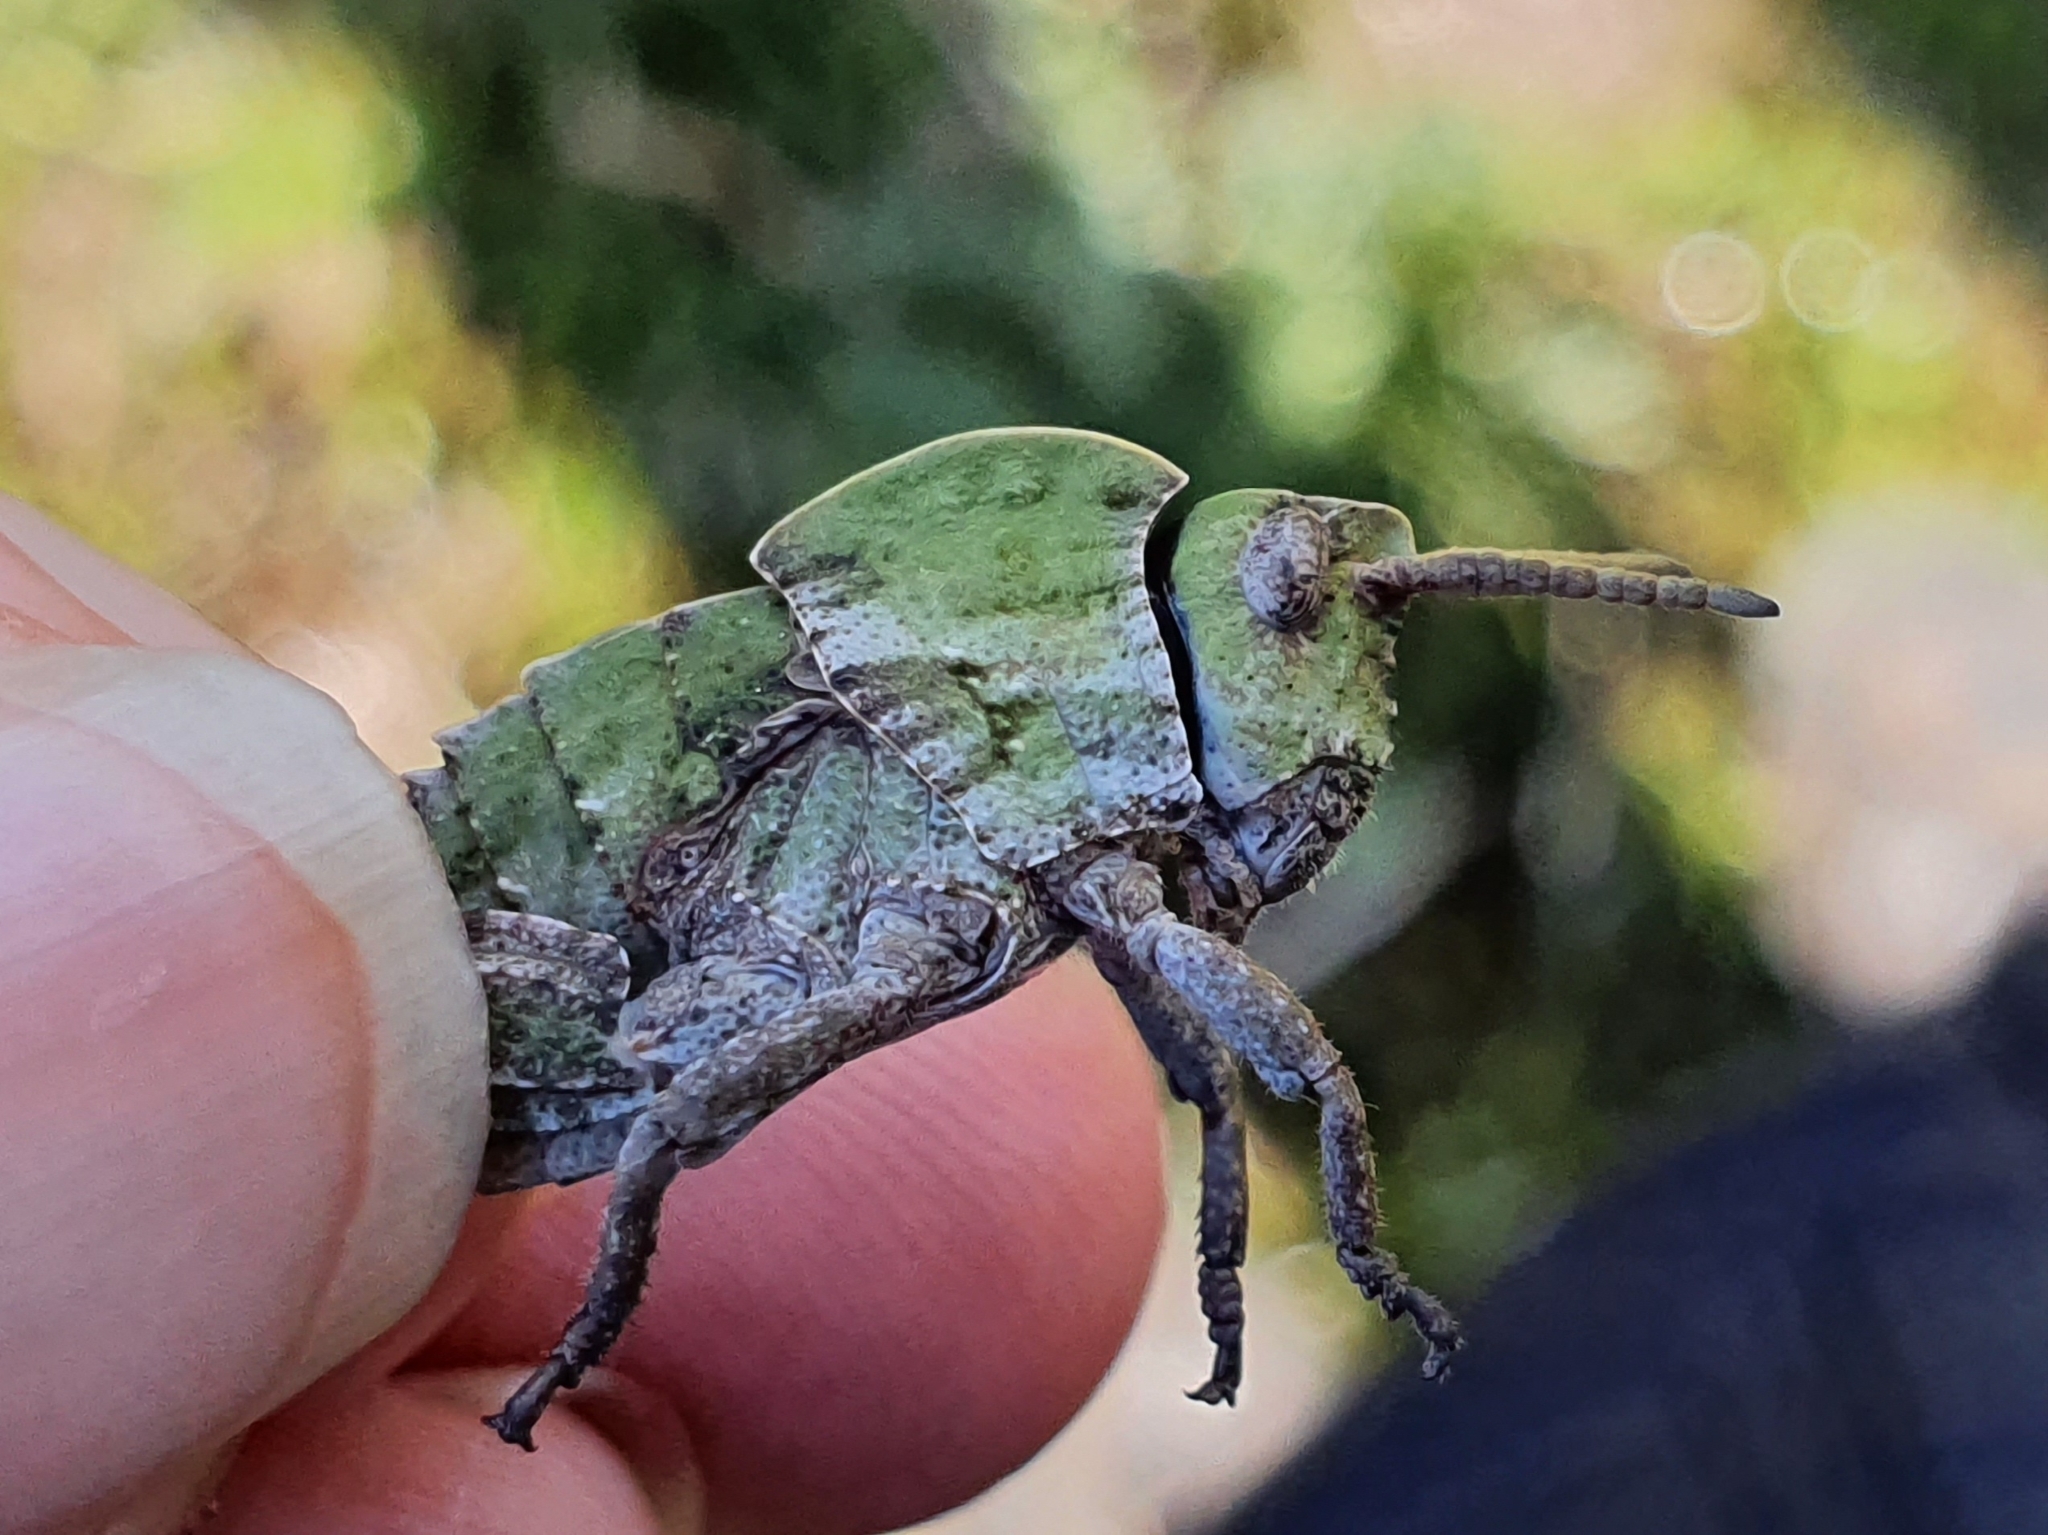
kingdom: Animalia
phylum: Arthropoda
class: Insecta
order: Orthoptera
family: Pamphagidae
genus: Pamphagus
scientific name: Pamphagus milevitanus
